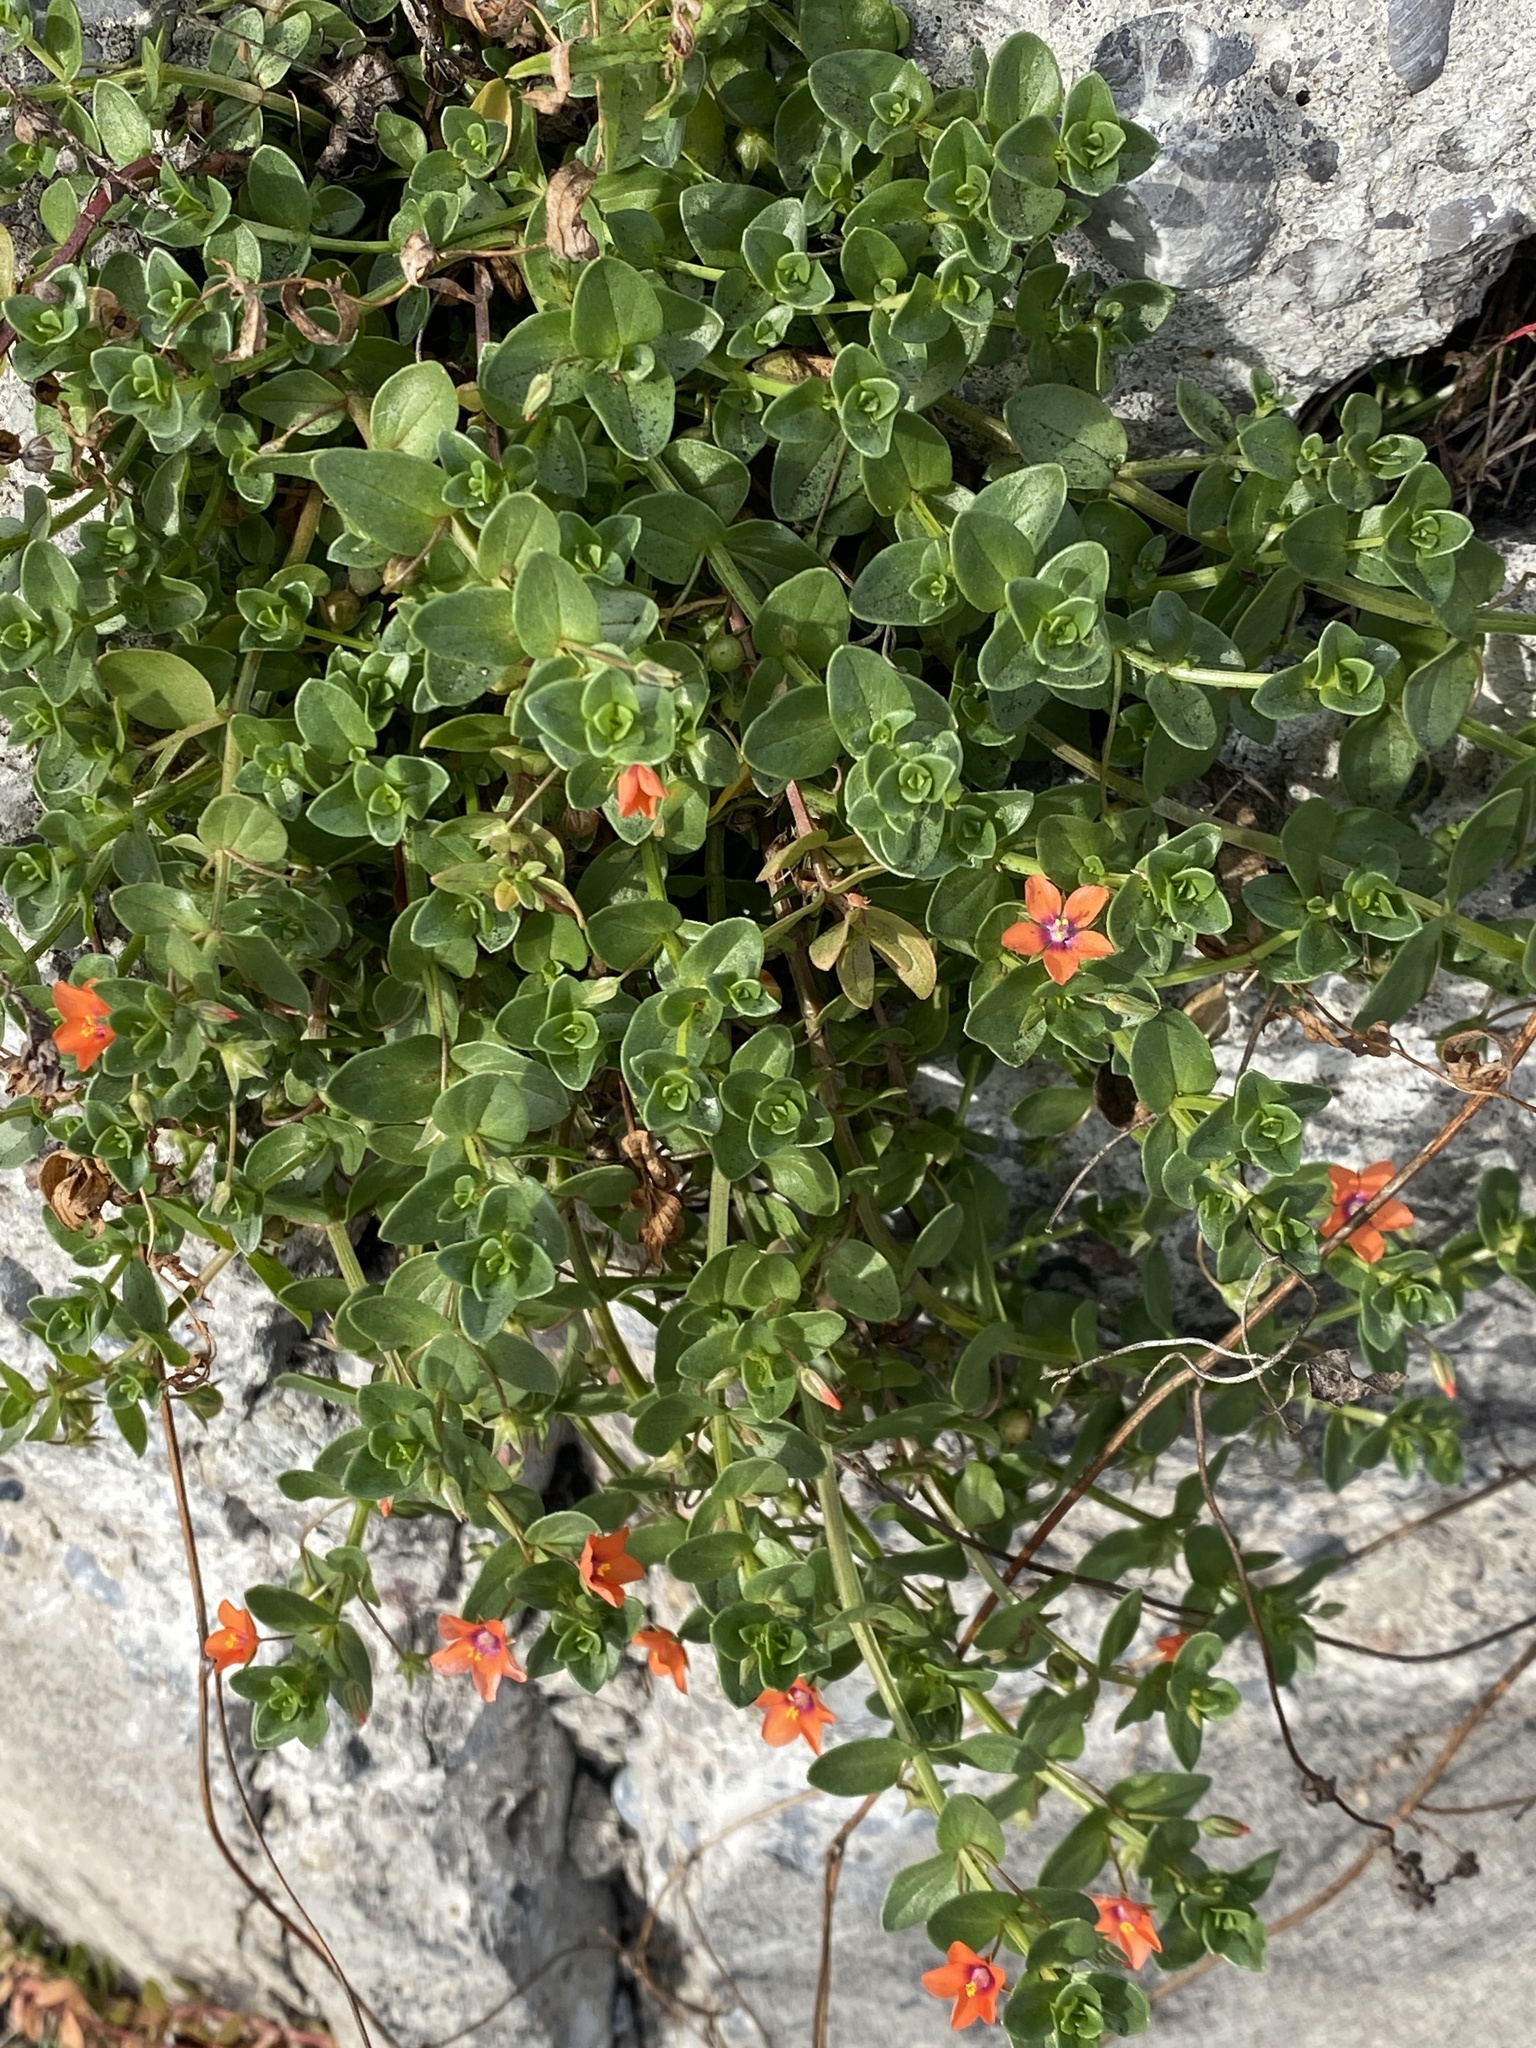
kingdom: Plantae
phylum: Tracheophyta
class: Magnoliopsida
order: Ericales
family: Primulaceae
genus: Lysimachia
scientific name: Lysimachia arvensis
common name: Scarlet pimpernel
